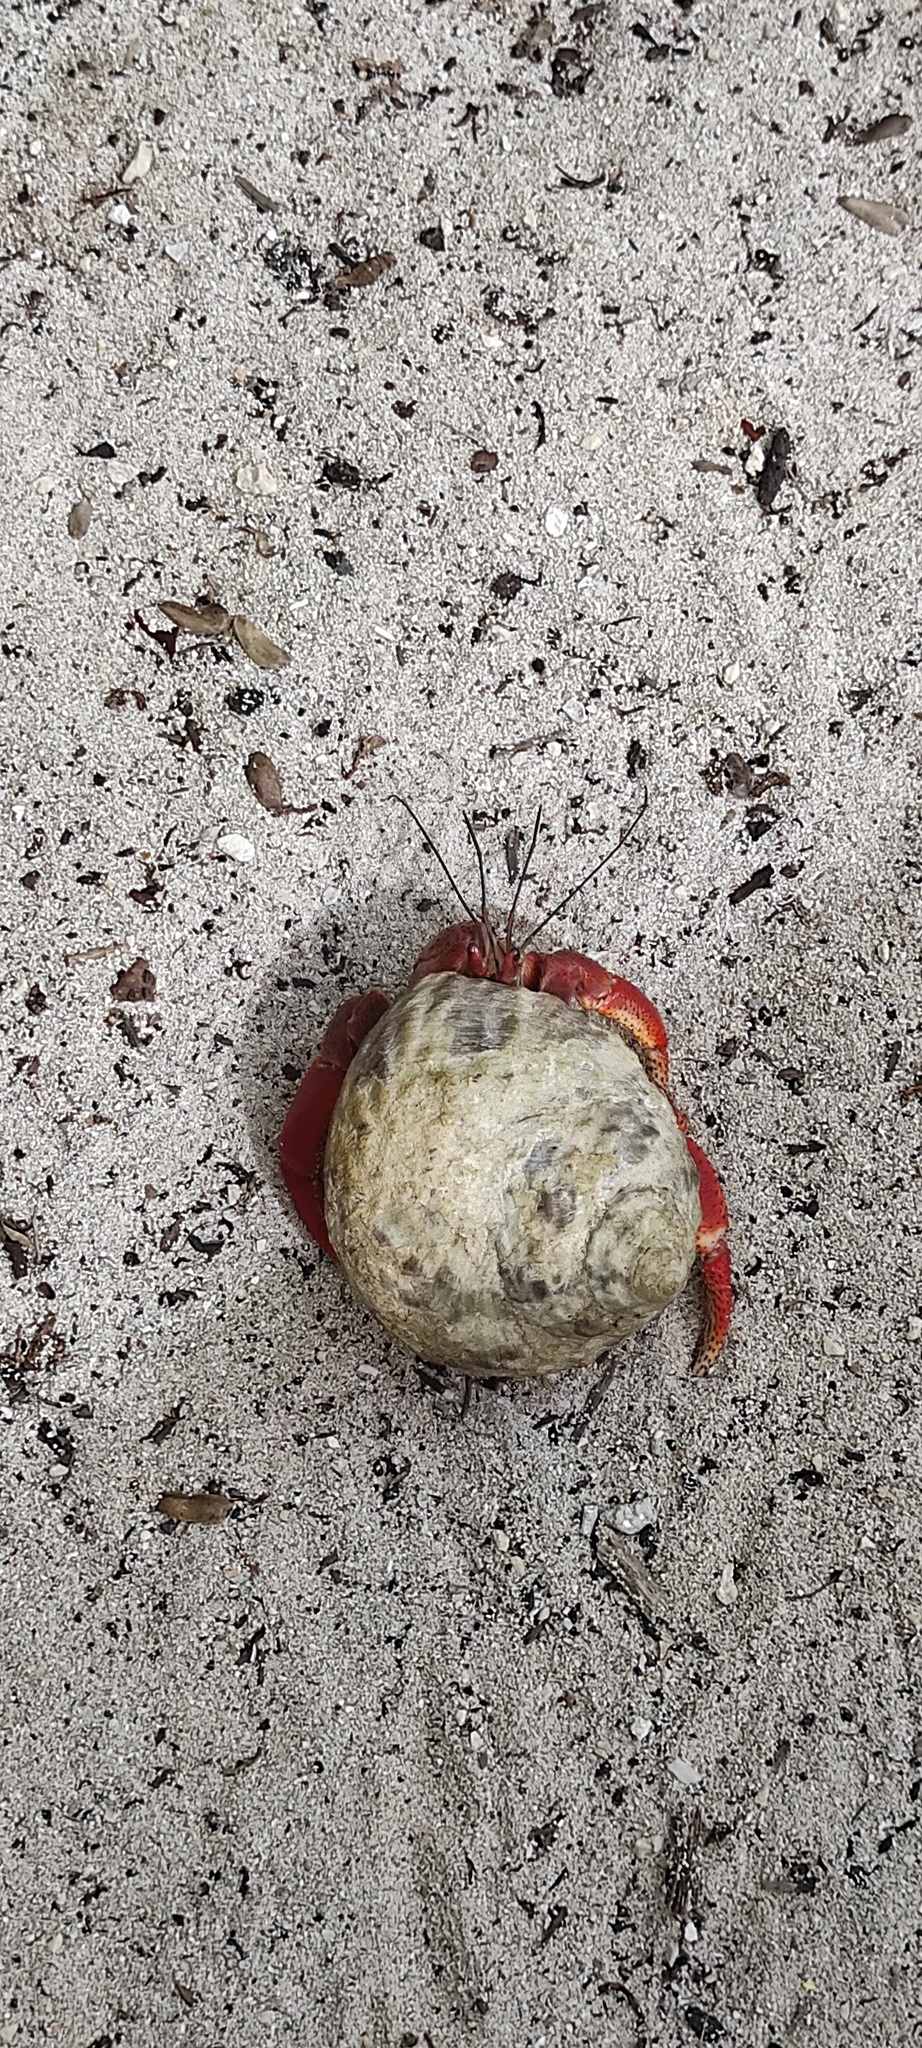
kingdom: Animalia
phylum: Mollusca
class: Gastropoda
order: Trochida
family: Tegulidae
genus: Cittarium
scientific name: Cittarium pica
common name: West indian topshell
